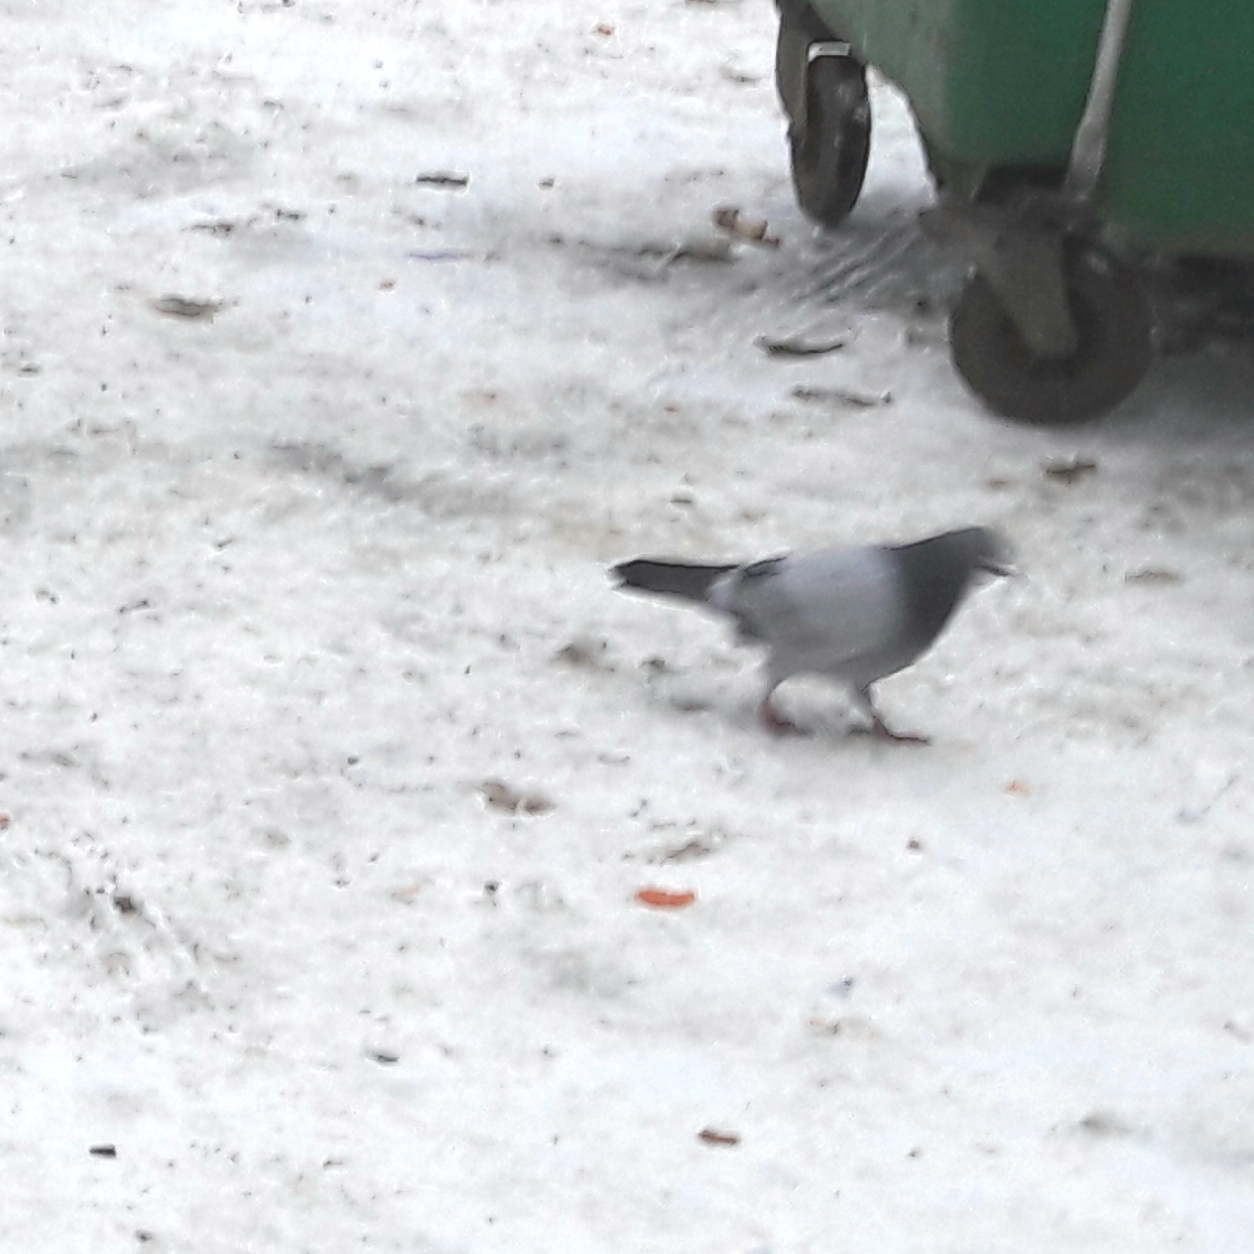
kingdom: Animalia
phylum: Chordata
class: Aves
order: Columbiformes
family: Columbidae
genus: Columba
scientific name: Columba livia
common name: Rock pigeon
